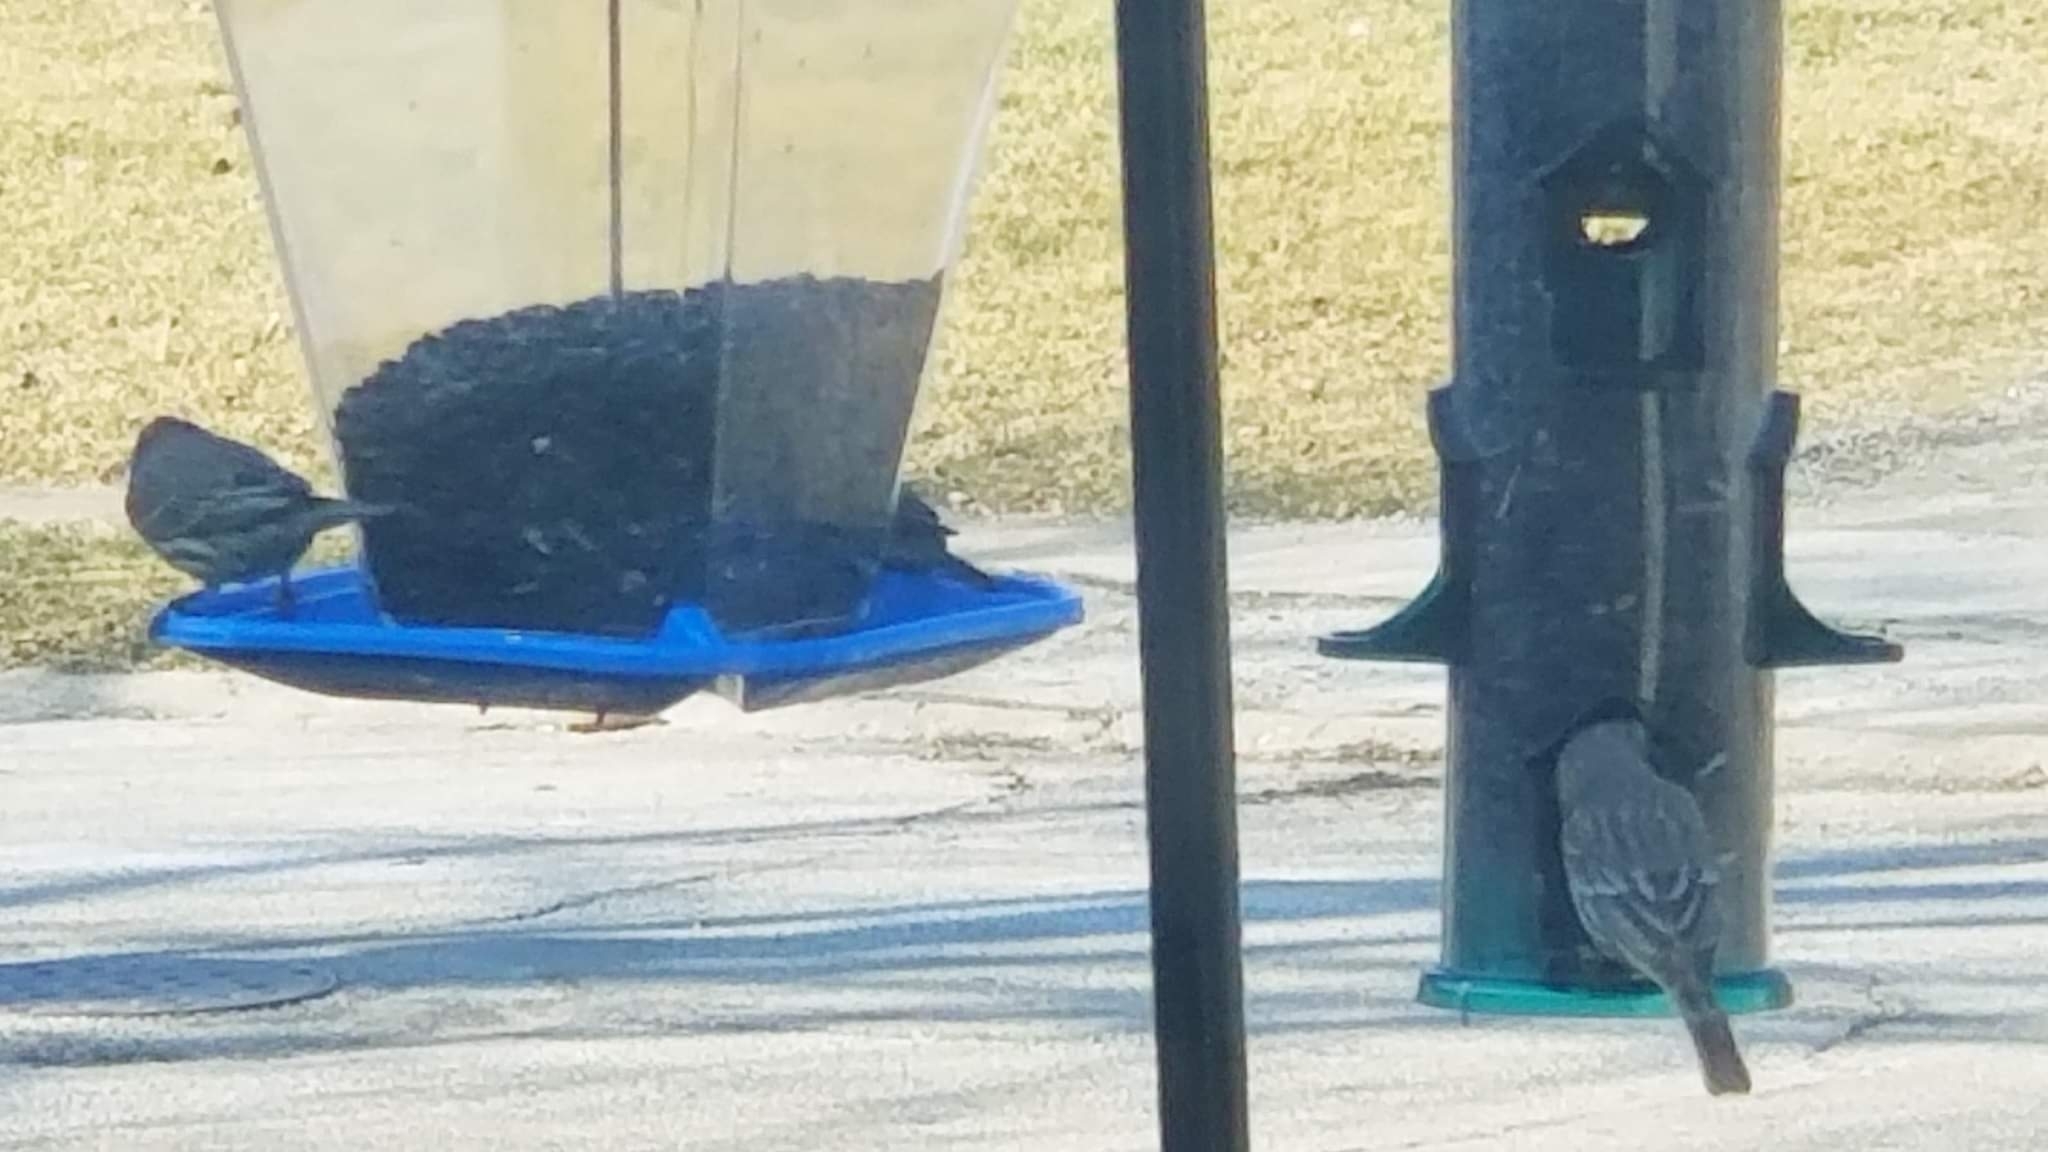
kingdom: Animalia
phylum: Chordata
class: Aves
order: Passeriformes
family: Fringillidae
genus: Haemorhous
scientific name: Haemorhous mexicanus
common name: House finch
